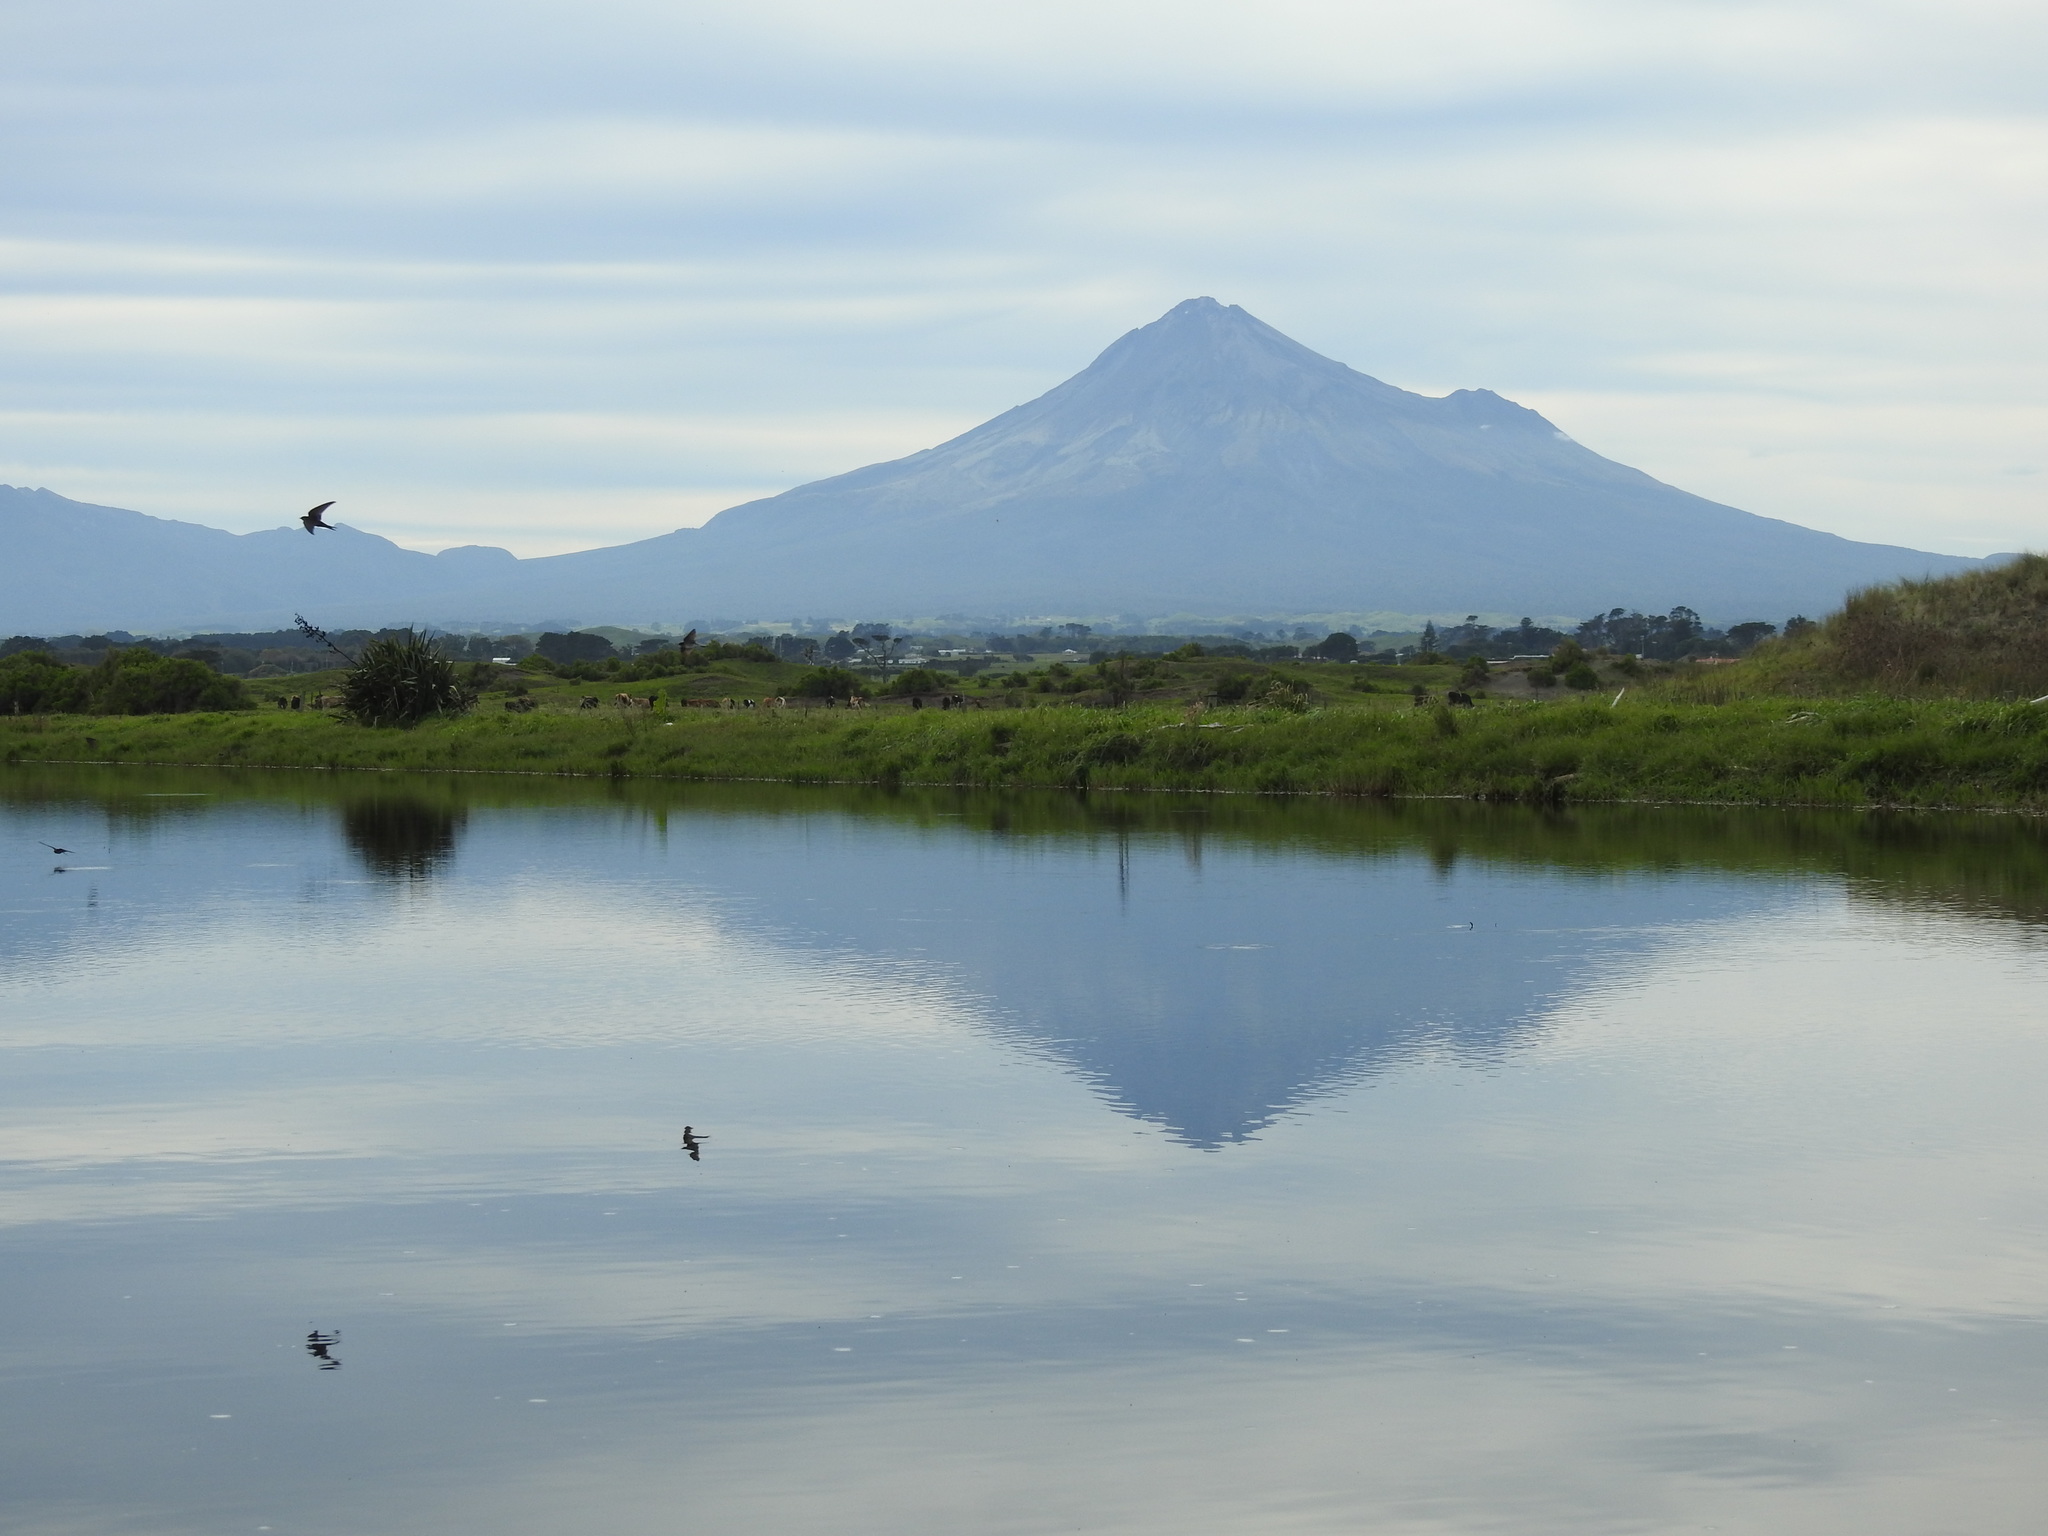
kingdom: Animalia
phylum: Chordata
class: Aves
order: Passeriformes
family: Hirundinidae
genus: Hirundo
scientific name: Hirundo neoxena
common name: Welcome swallow
